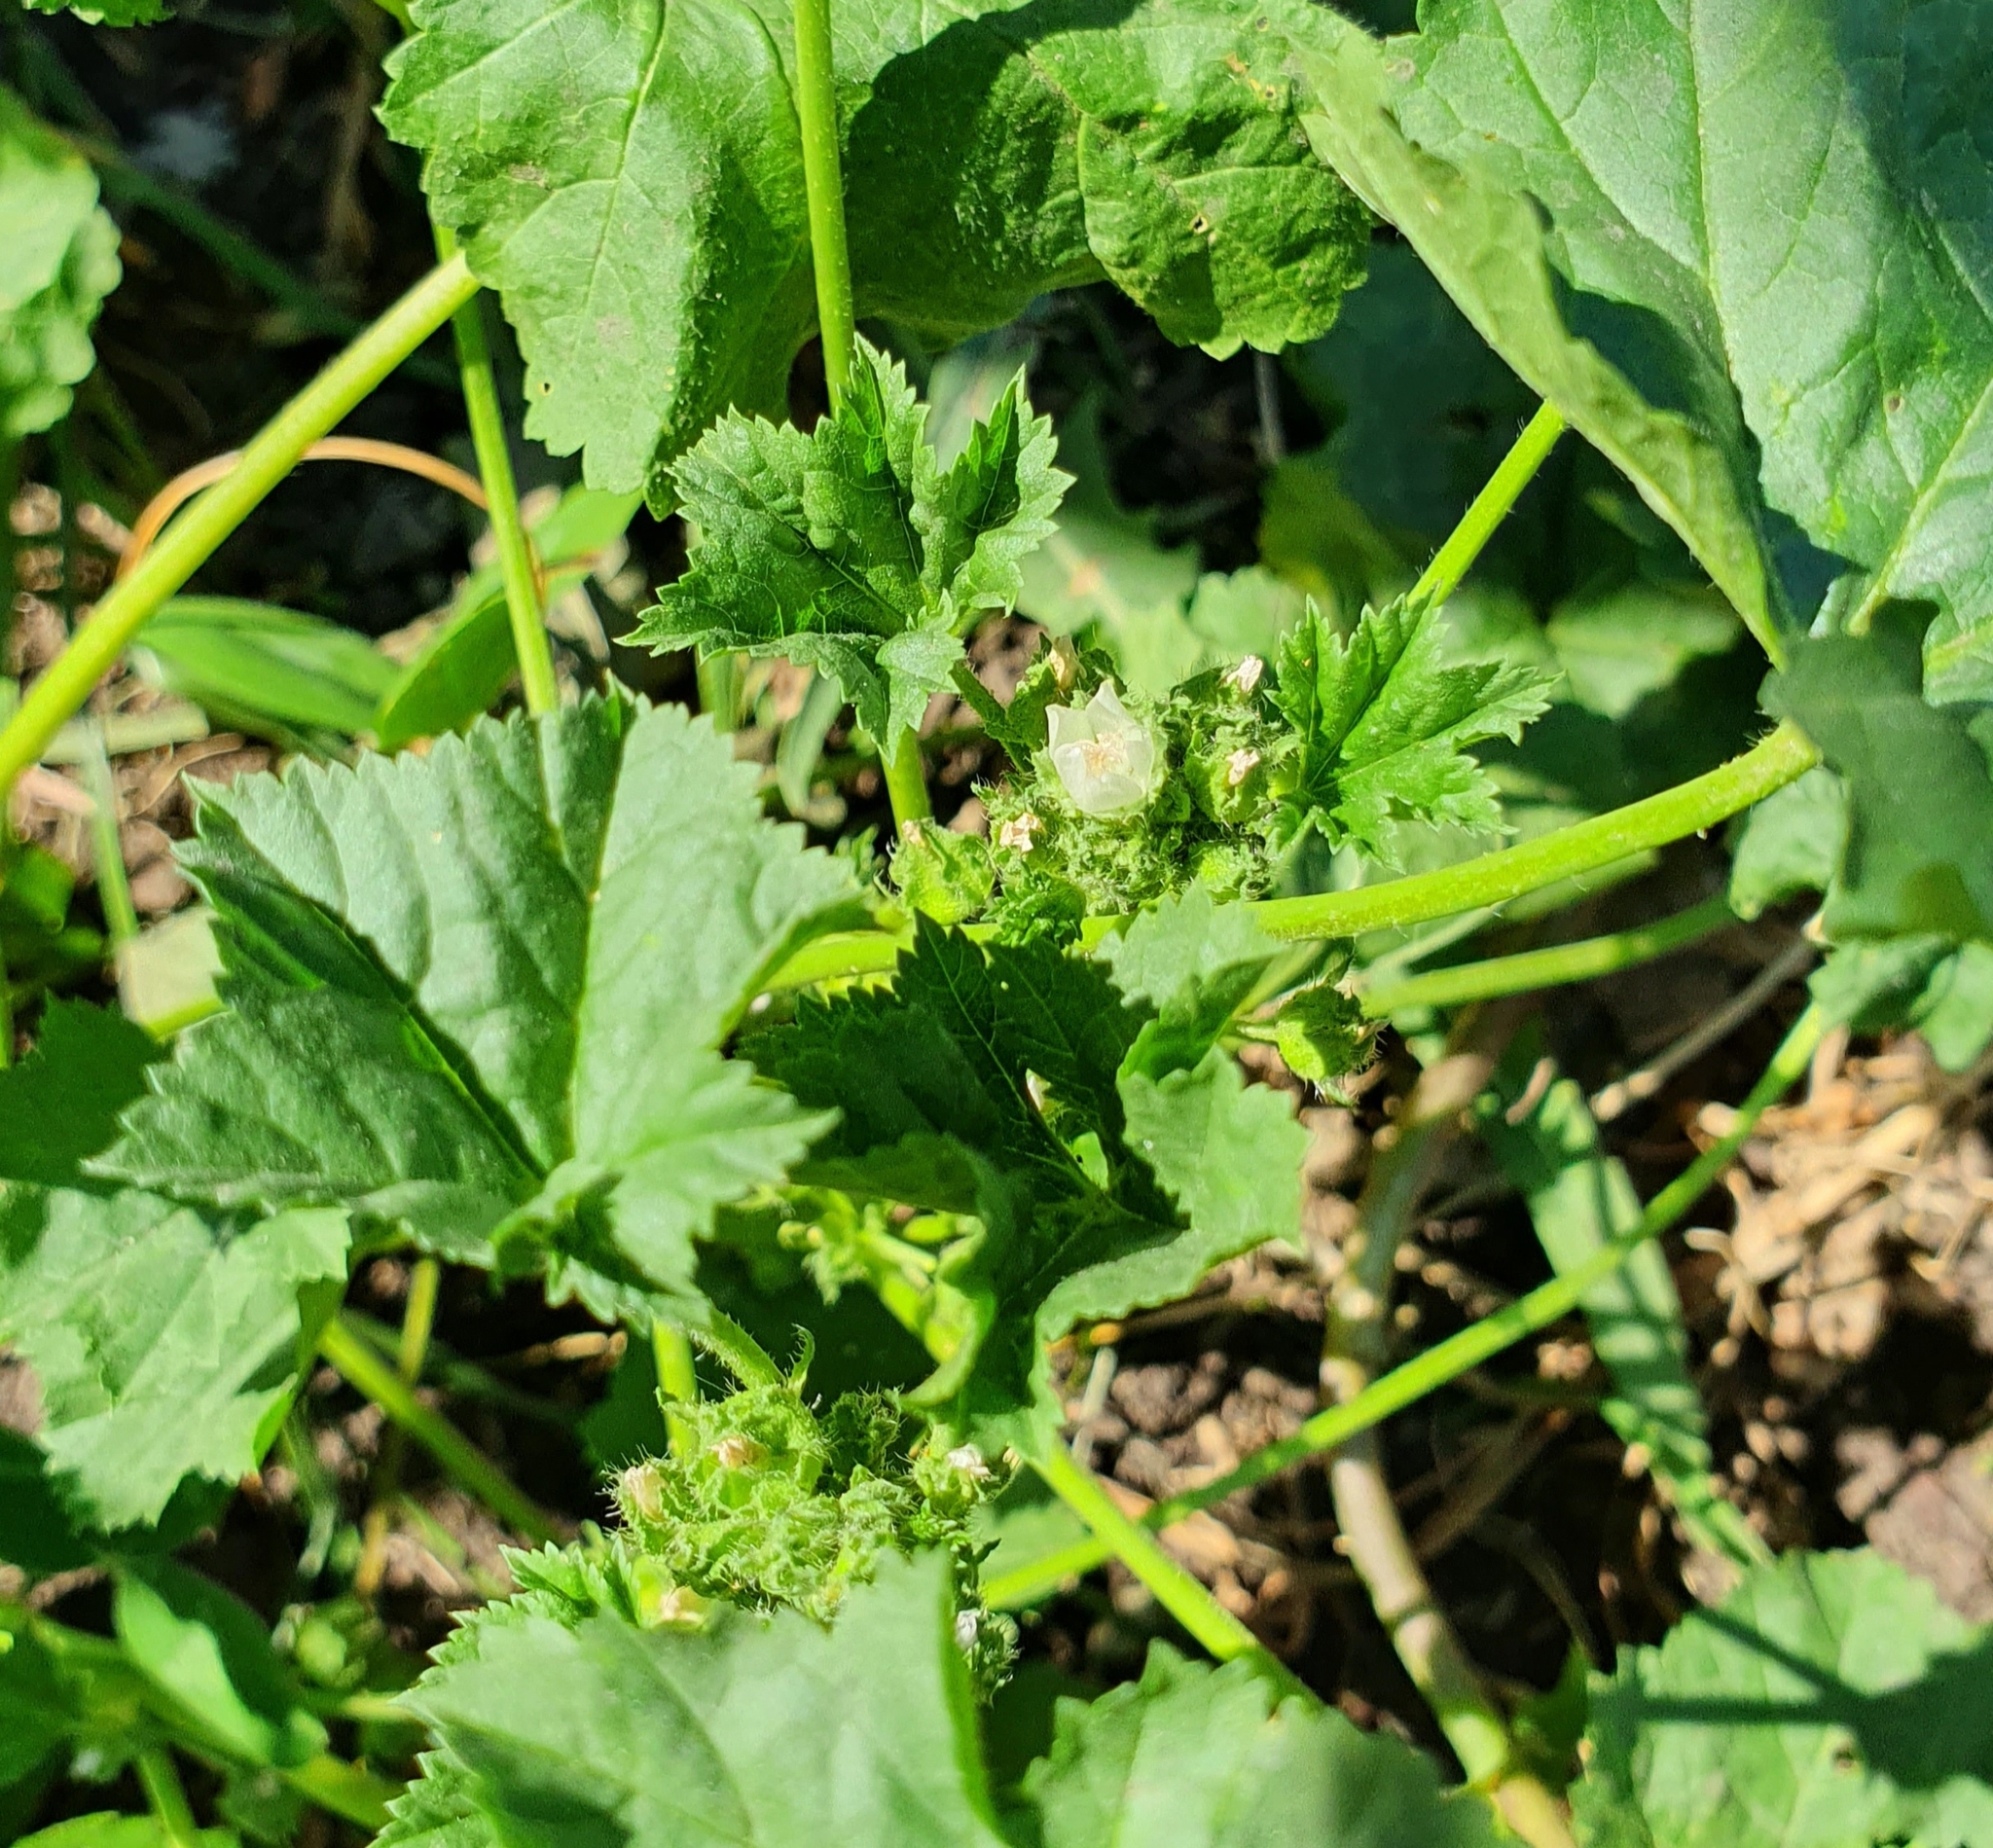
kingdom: Plantae
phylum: Tracheophyta
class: Magnoliopsida
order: Malvales
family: Malvaceae
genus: Malva
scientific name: Malva pusilla
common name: Small mallow
